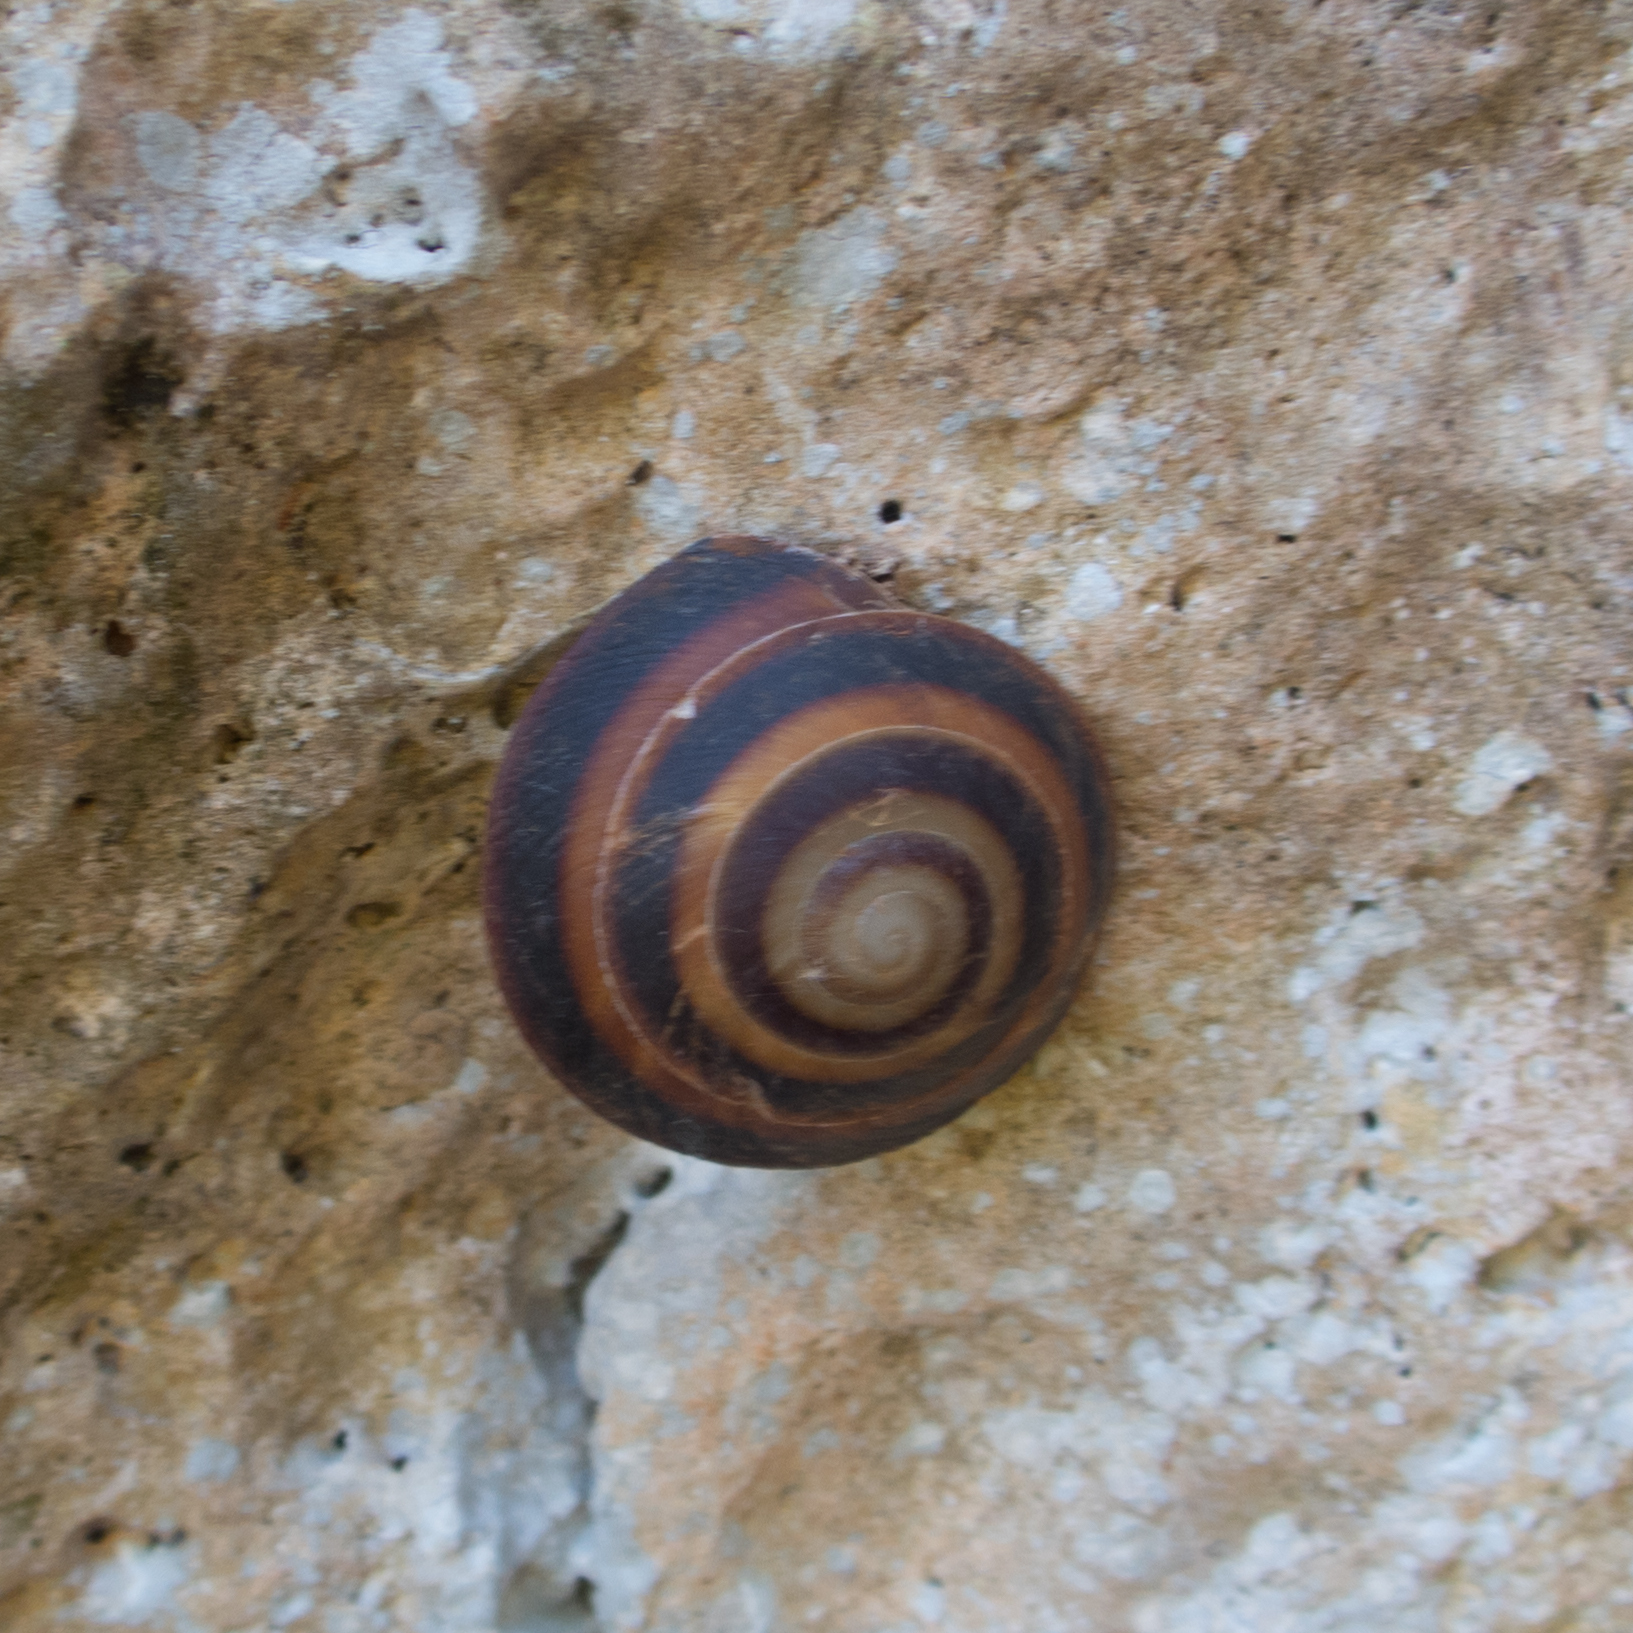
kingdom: Animalia
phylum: Mollusca
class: Gastropoda
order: Stylommatophora
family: Solaropsidae
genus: Caracolus
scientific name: Caracolus sagemon
